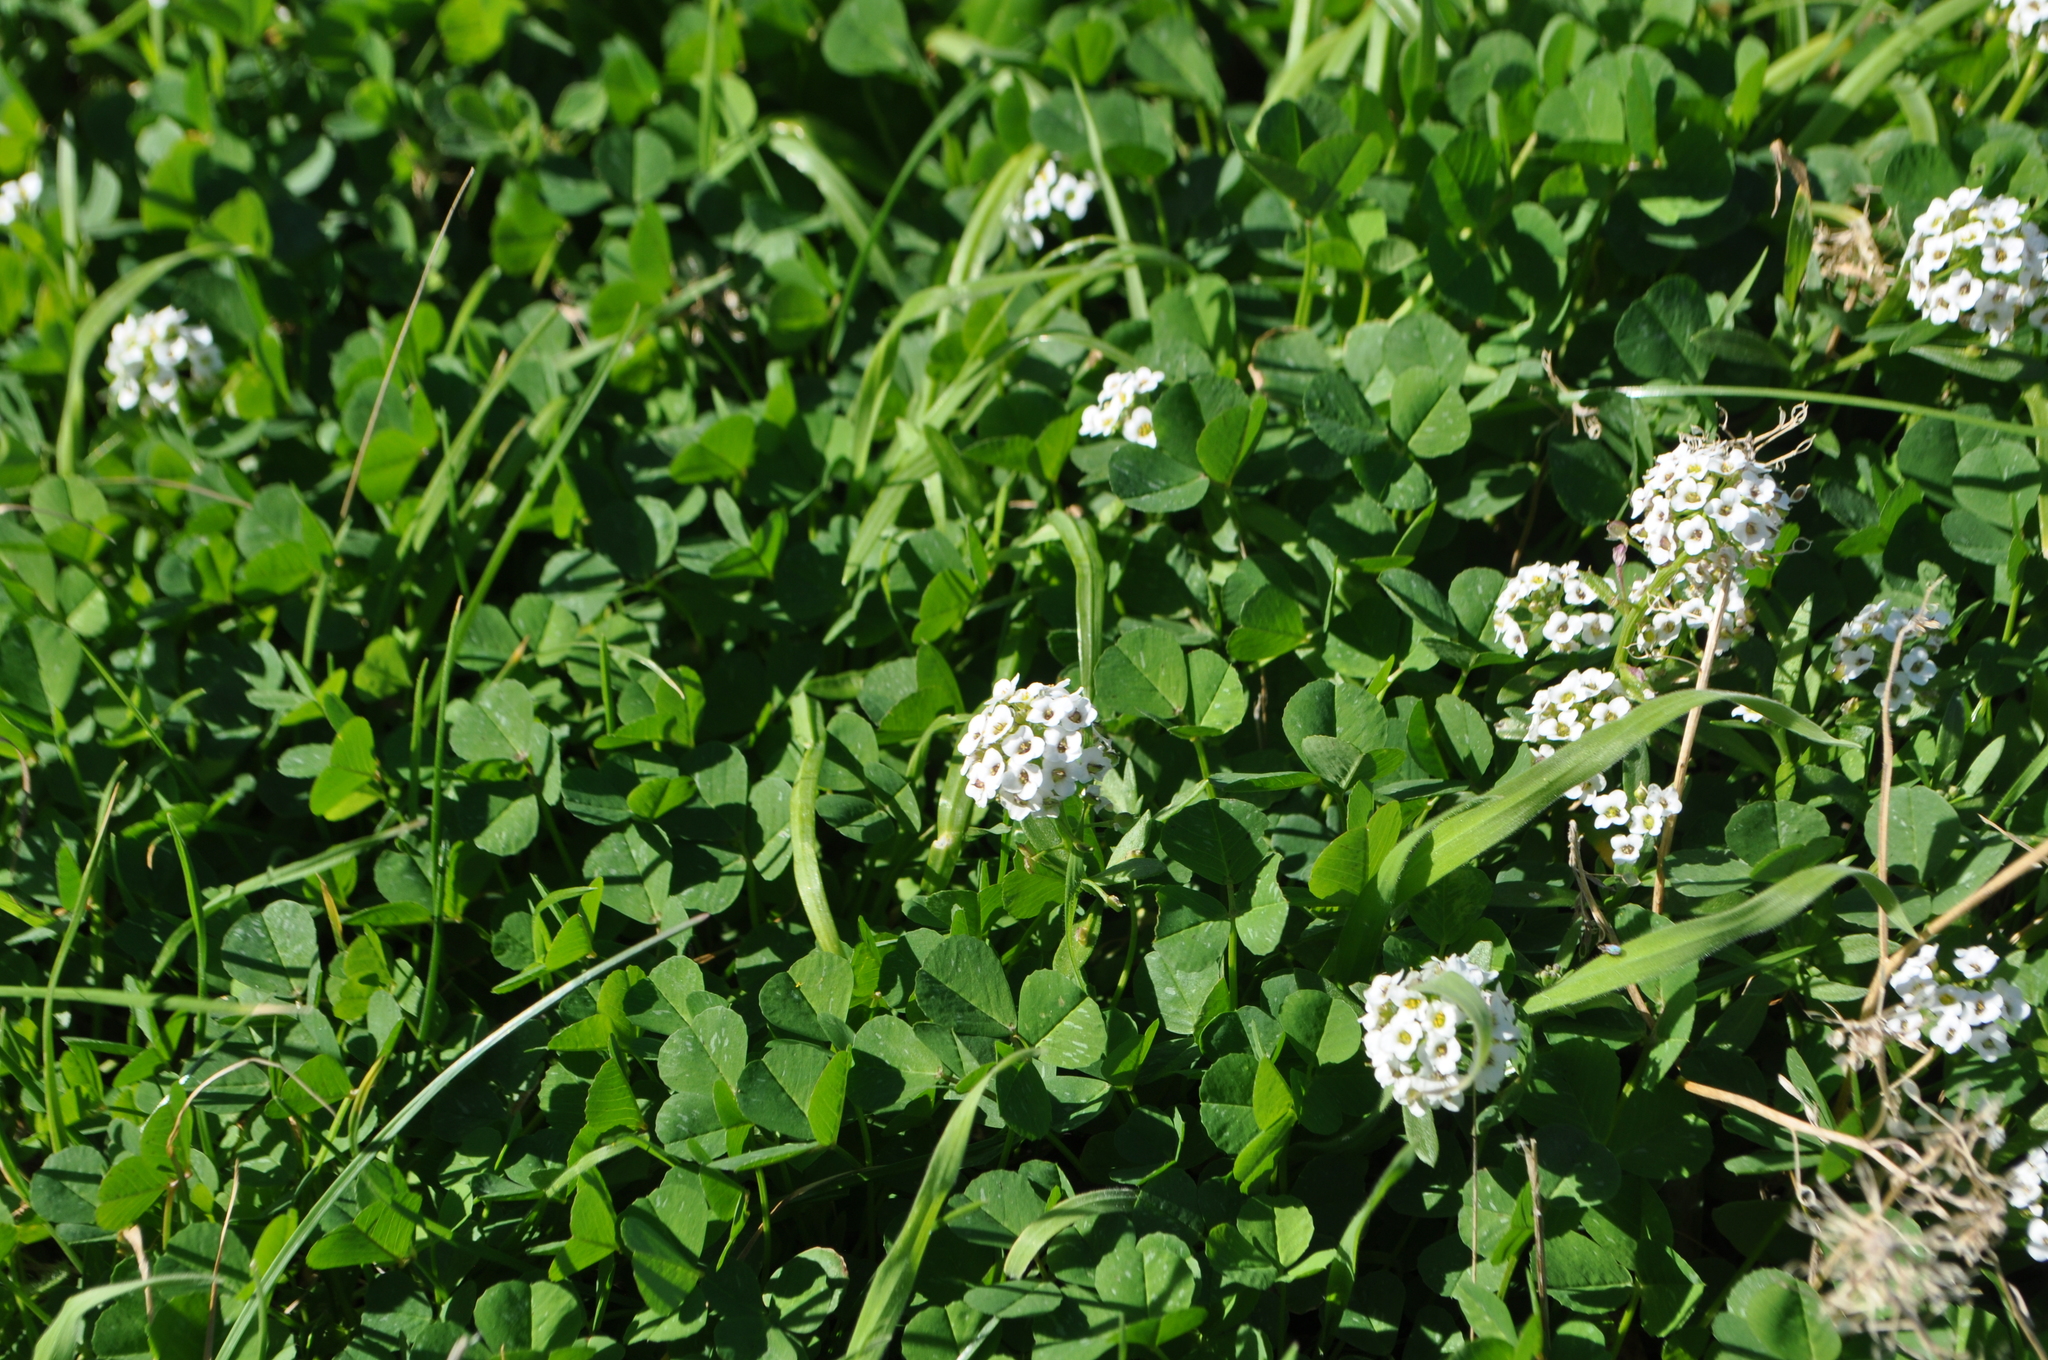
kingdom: Plantae
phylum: Tracheophyta
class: Magnoliopsida
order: Brassicales
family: Brassicaceae
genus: Lobularia
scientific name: Lobularia maritima
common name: Sweet alison
